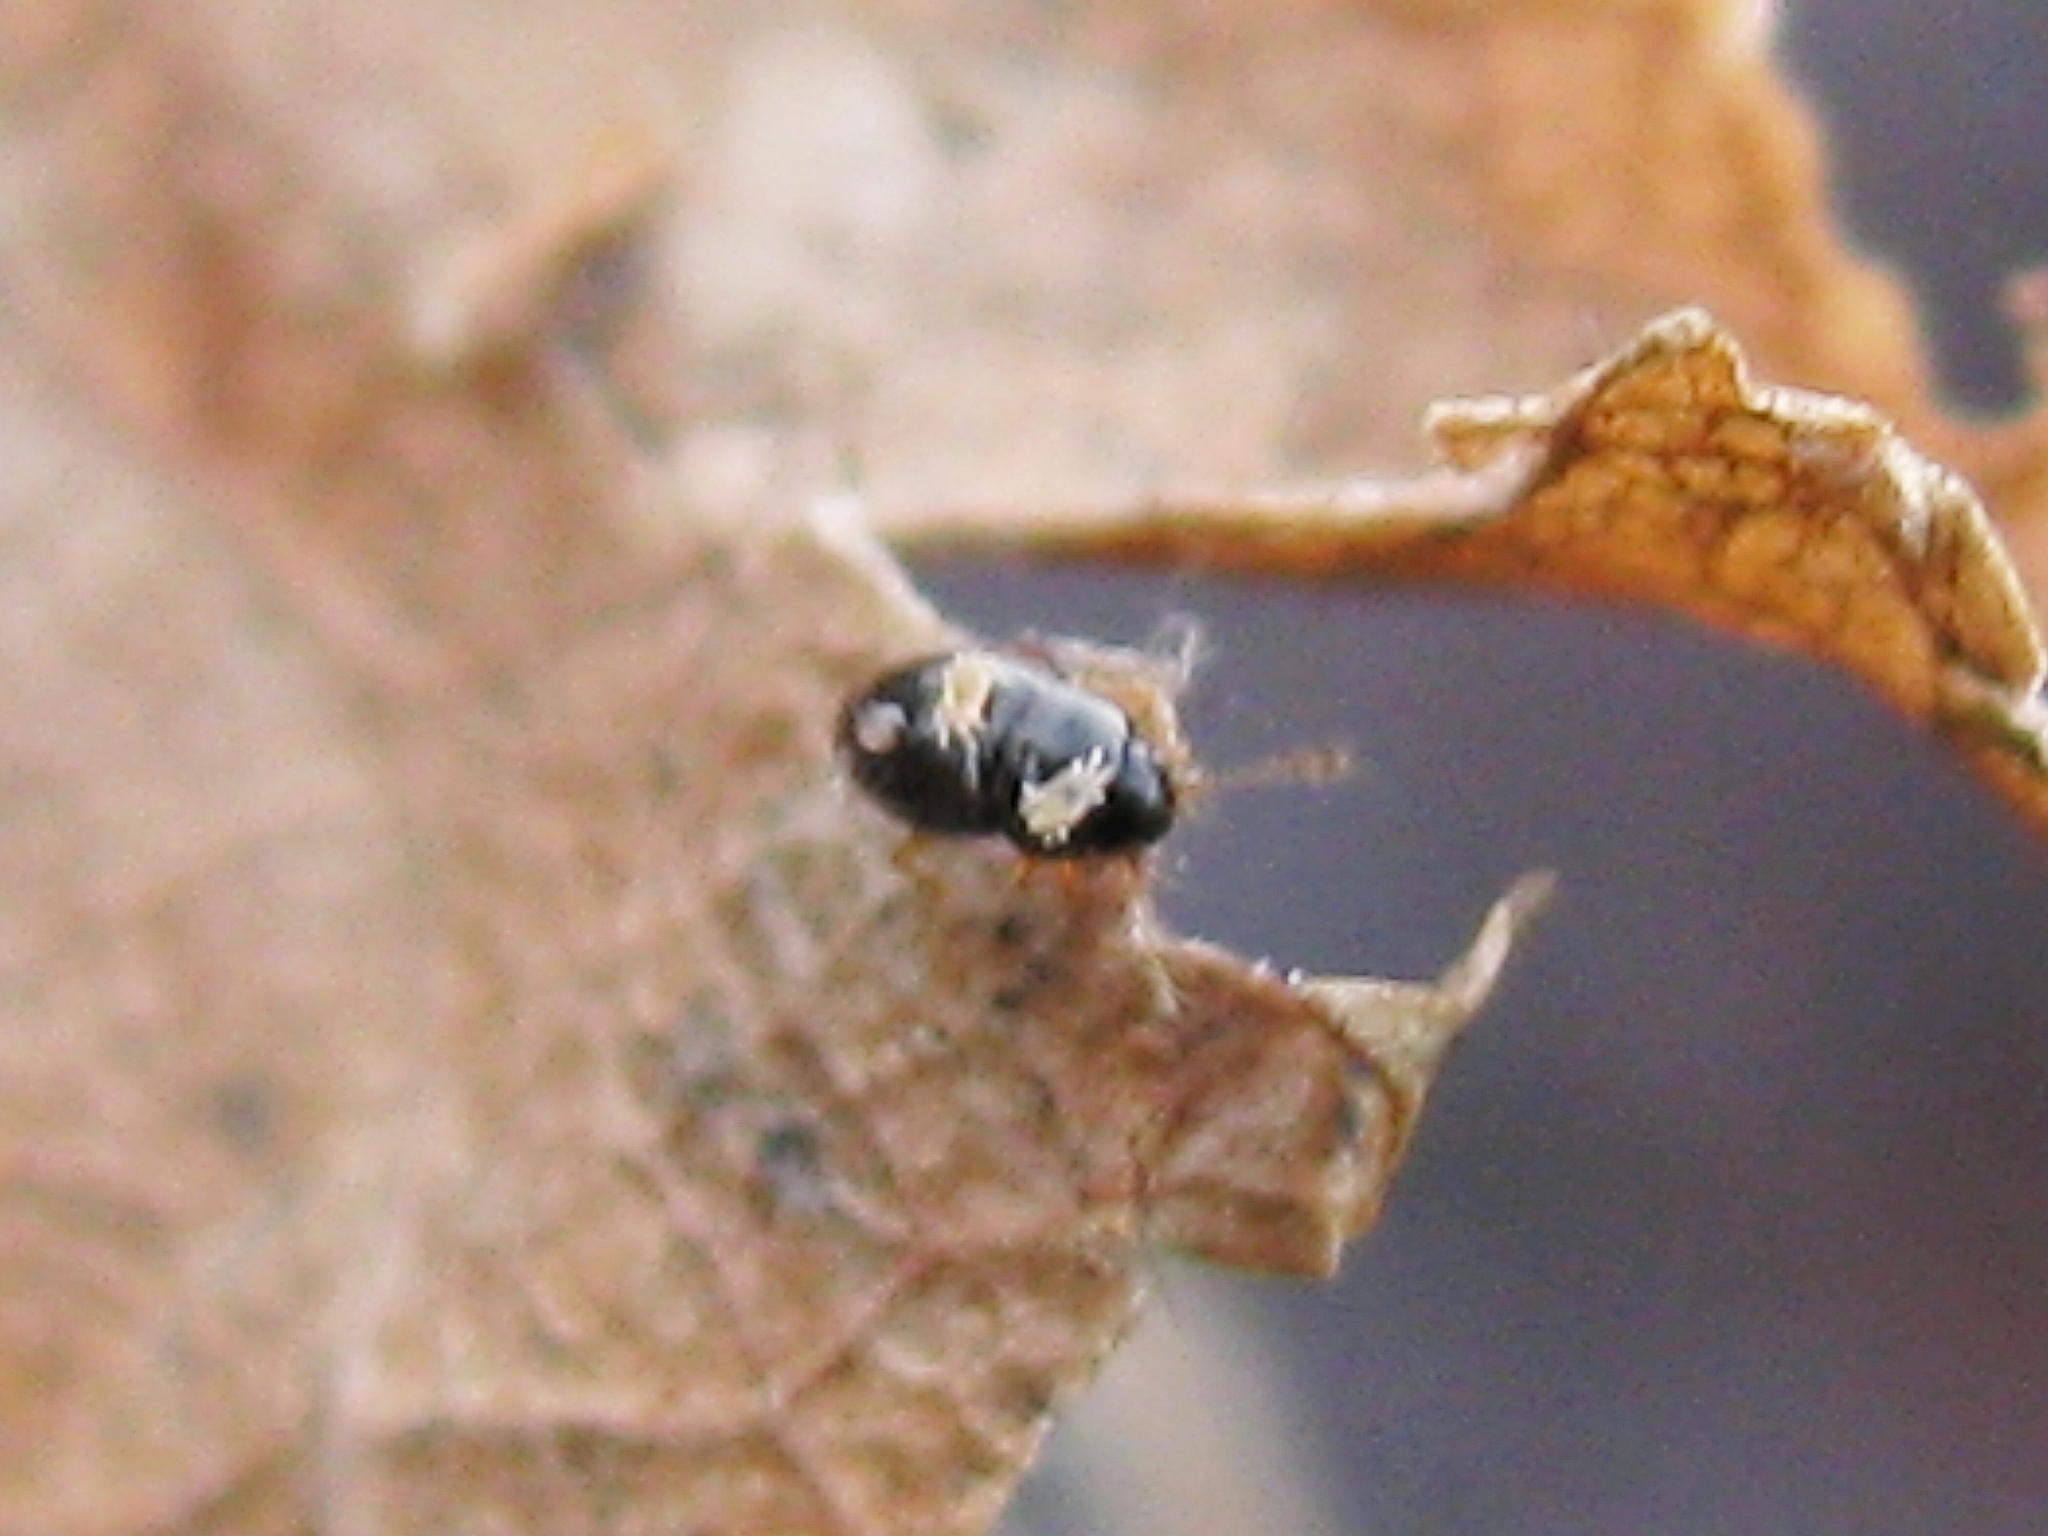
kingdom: Animalia
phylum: Arthropoda
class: Arachnida
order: Trombidiformes
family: Ereynetidae
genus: Ereynetes
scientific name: Ereynetes
